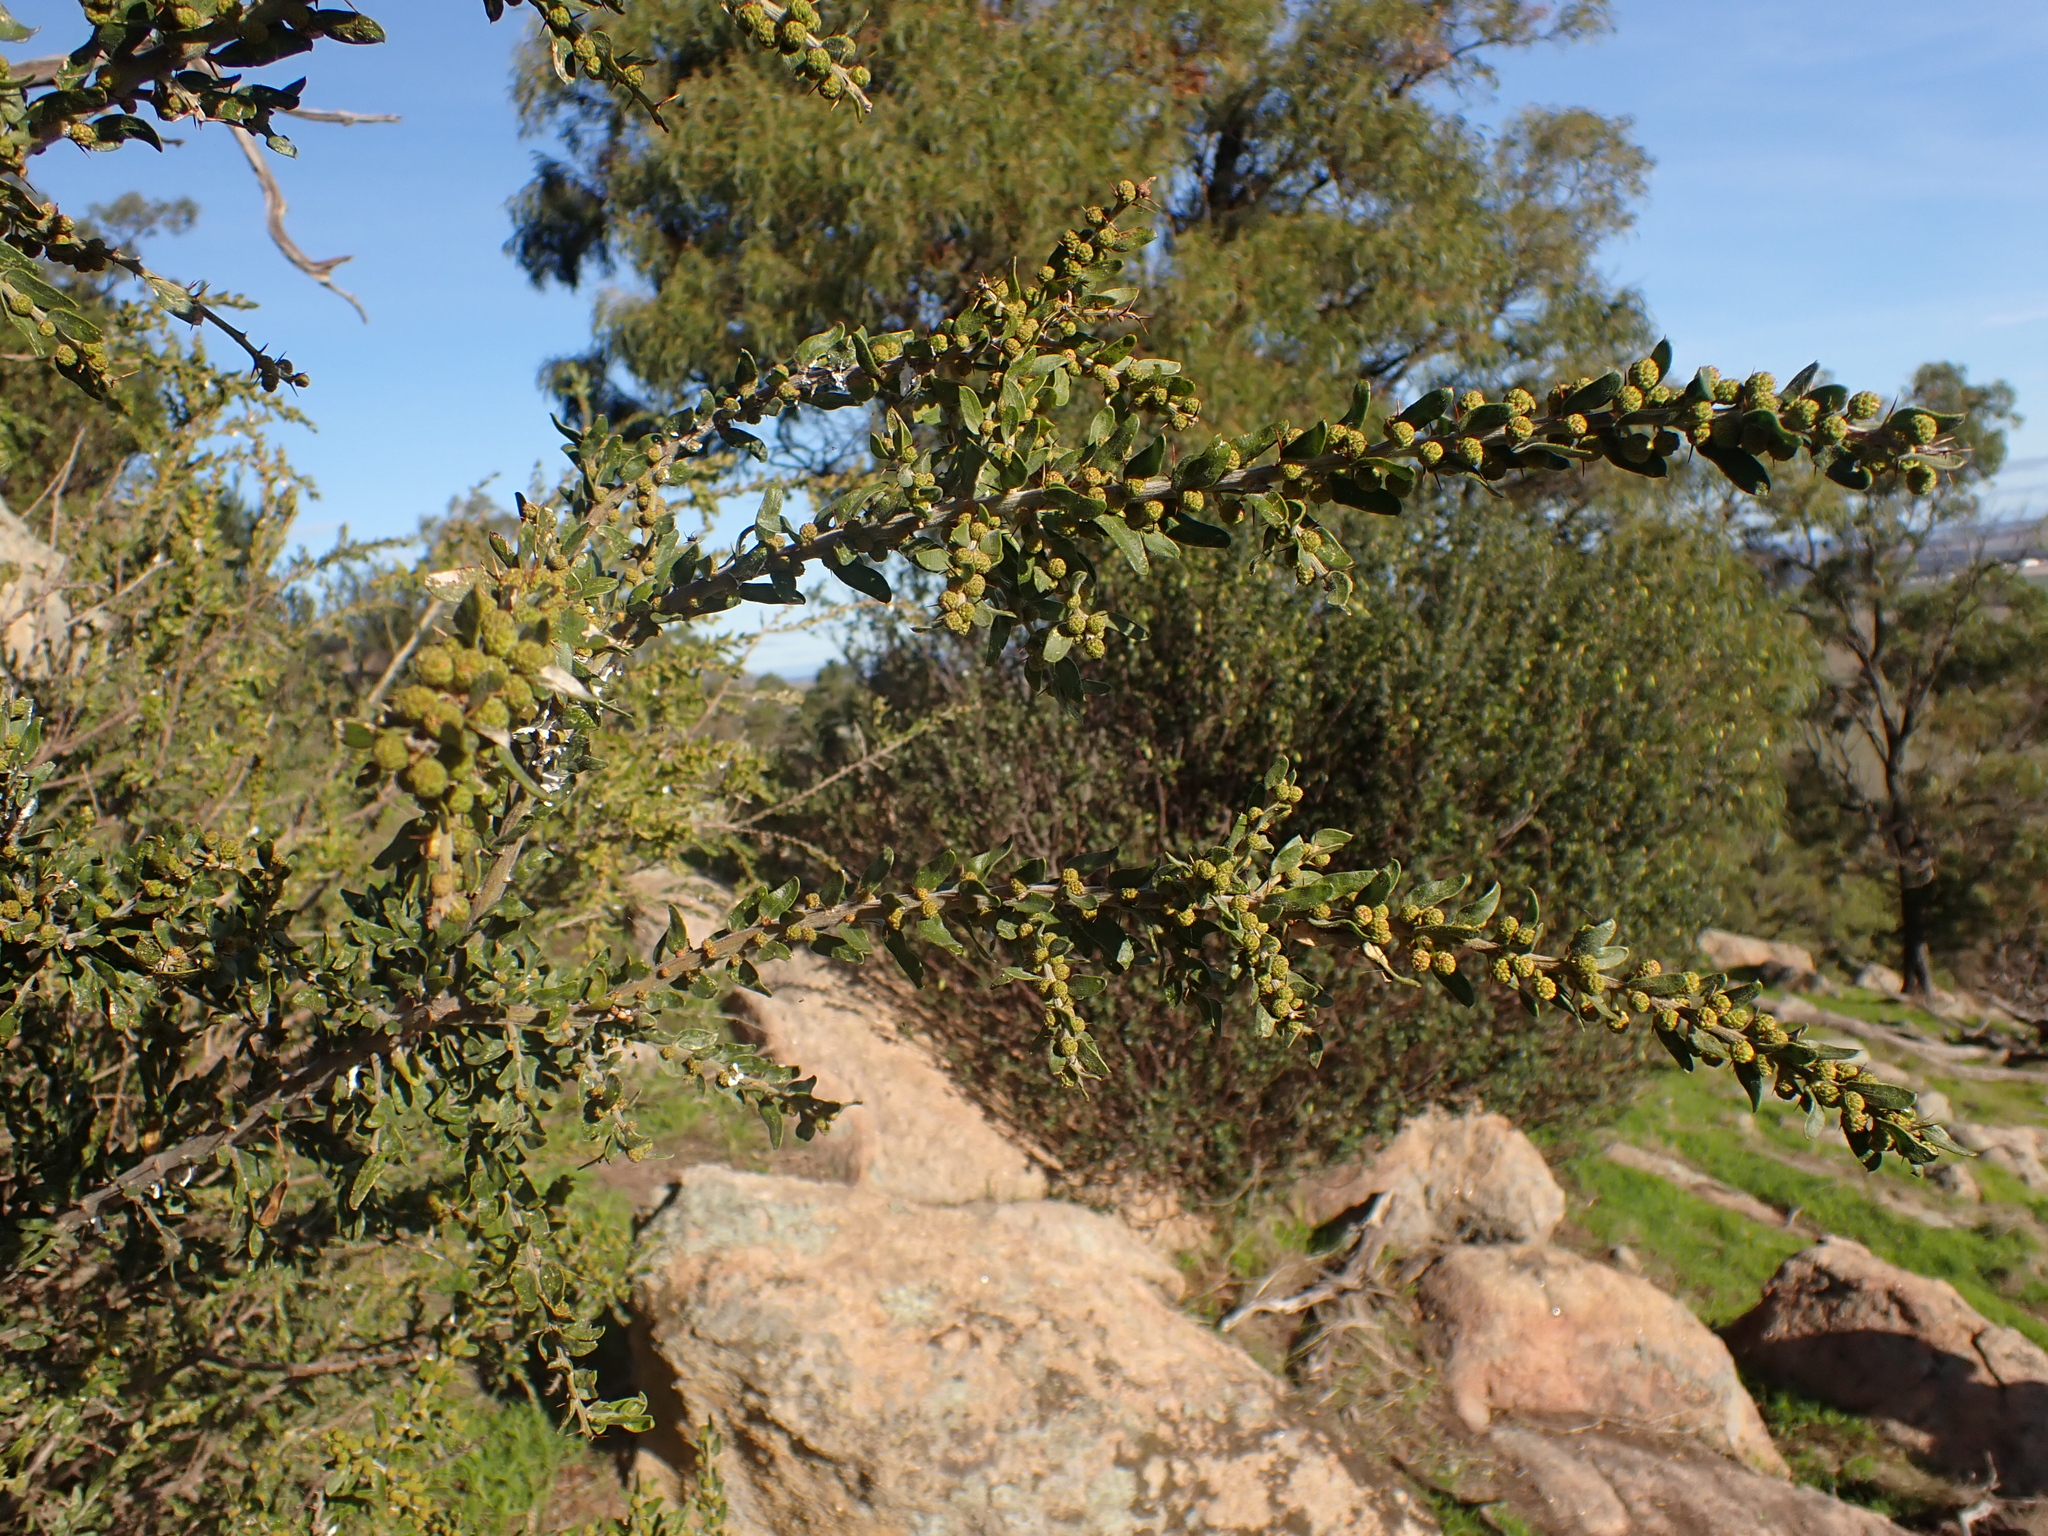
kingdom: Plantae
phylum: Tracheophyta
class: Magnoliopsida
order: Fabales
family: Fabaceae
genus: Acacia
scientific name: Acacia paradoxa
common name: Paradox acacia
